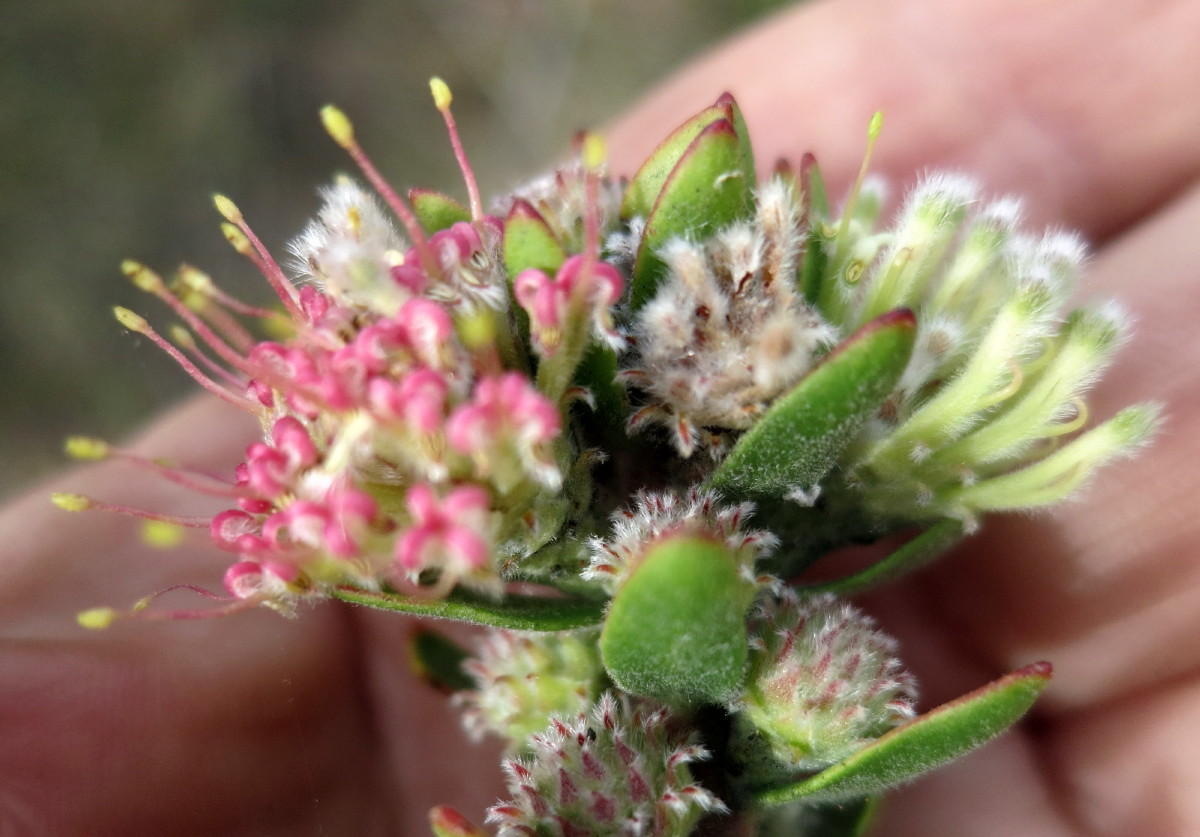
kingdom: Plantae
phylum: Tracheophyta
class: Magnoliopsida
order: Proteales
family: Proteaceae
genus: Leucospermum
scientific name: Leucospermum royenifolium
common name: Eastern pincushion
